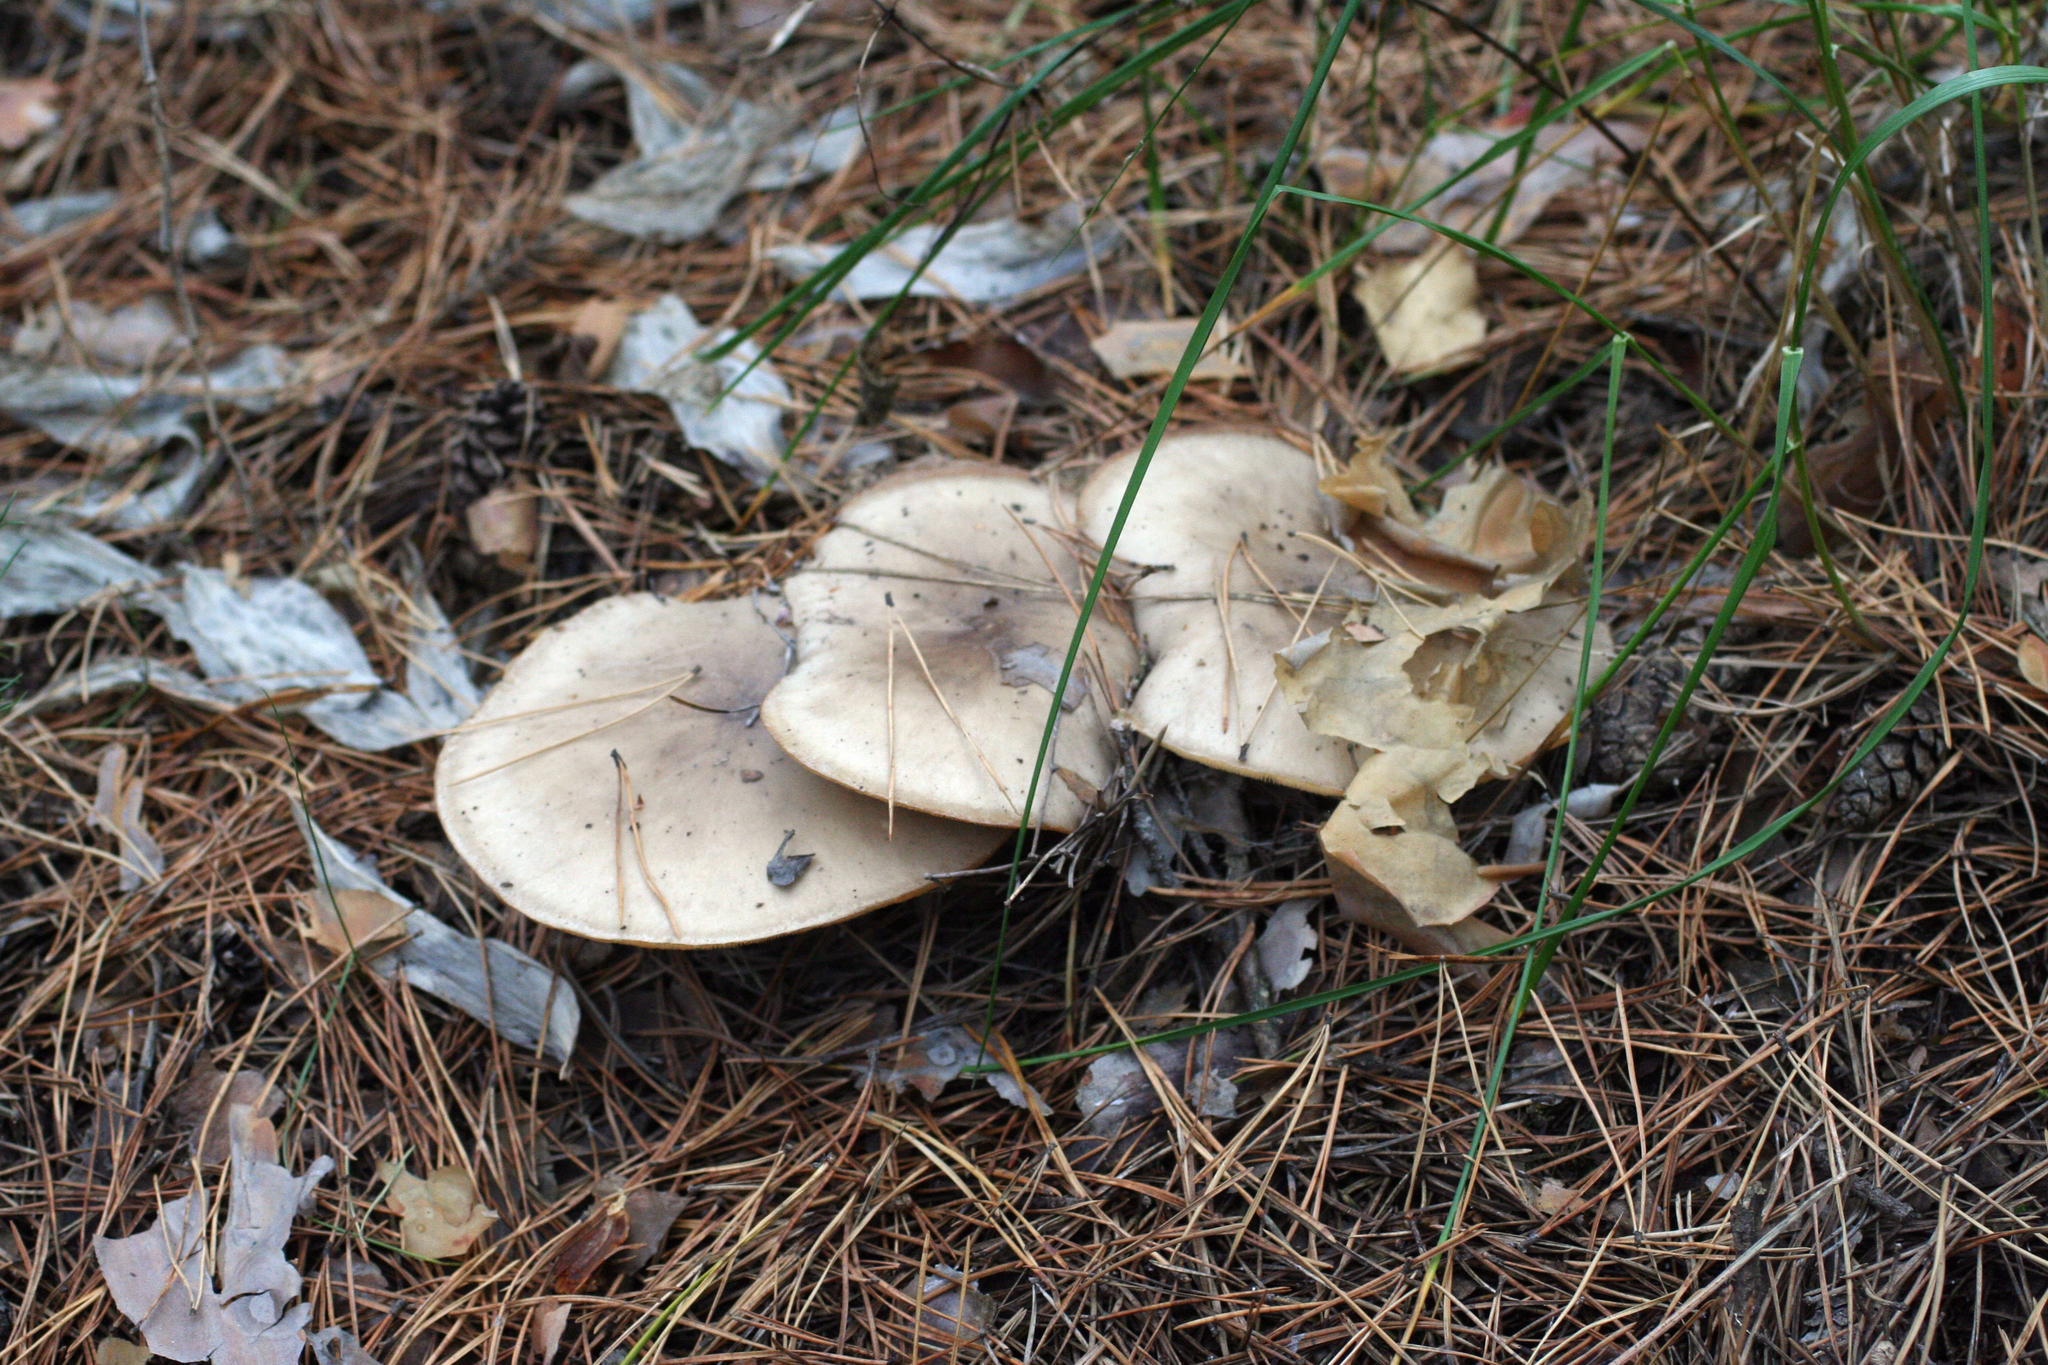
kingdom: Fungi
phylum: Basidiomycota
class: Agaricomycetes
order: Agaricales
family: Tricholomataceae
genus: Clitocybe
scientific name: Clitocybe nebularis
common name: Clouded agaric
